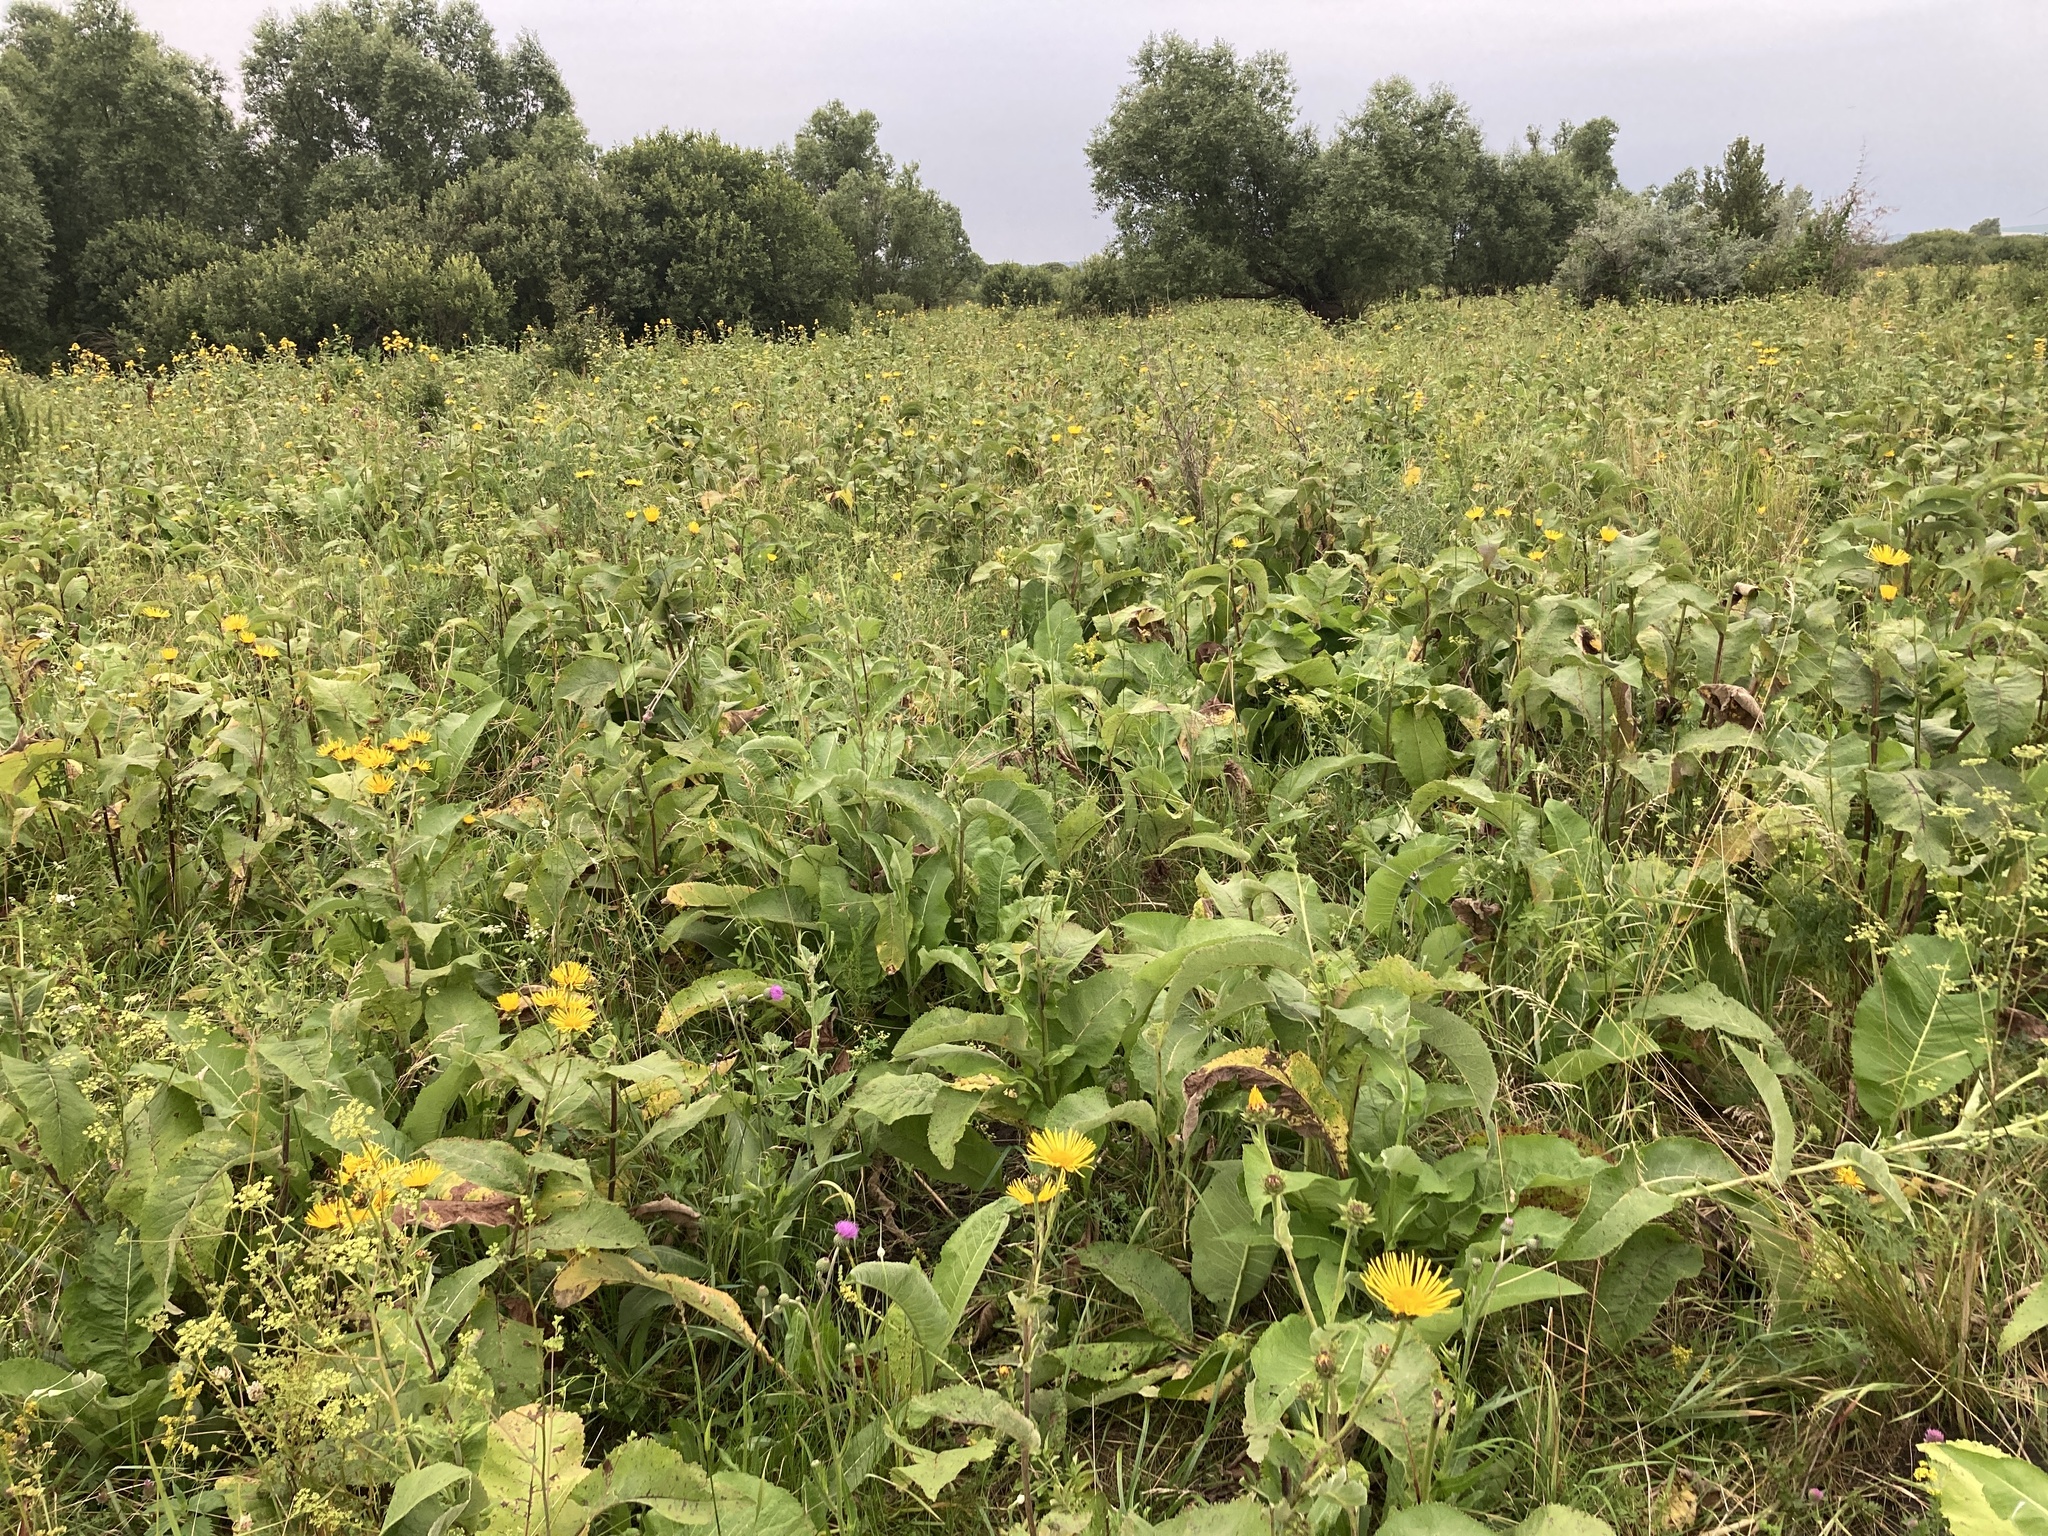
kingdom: Plantae
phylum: Tracheophyta
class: Magnoliopsida
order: Asterales
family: Asteraceae
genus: Inula
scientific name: Inula helenium
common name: Elecampane
